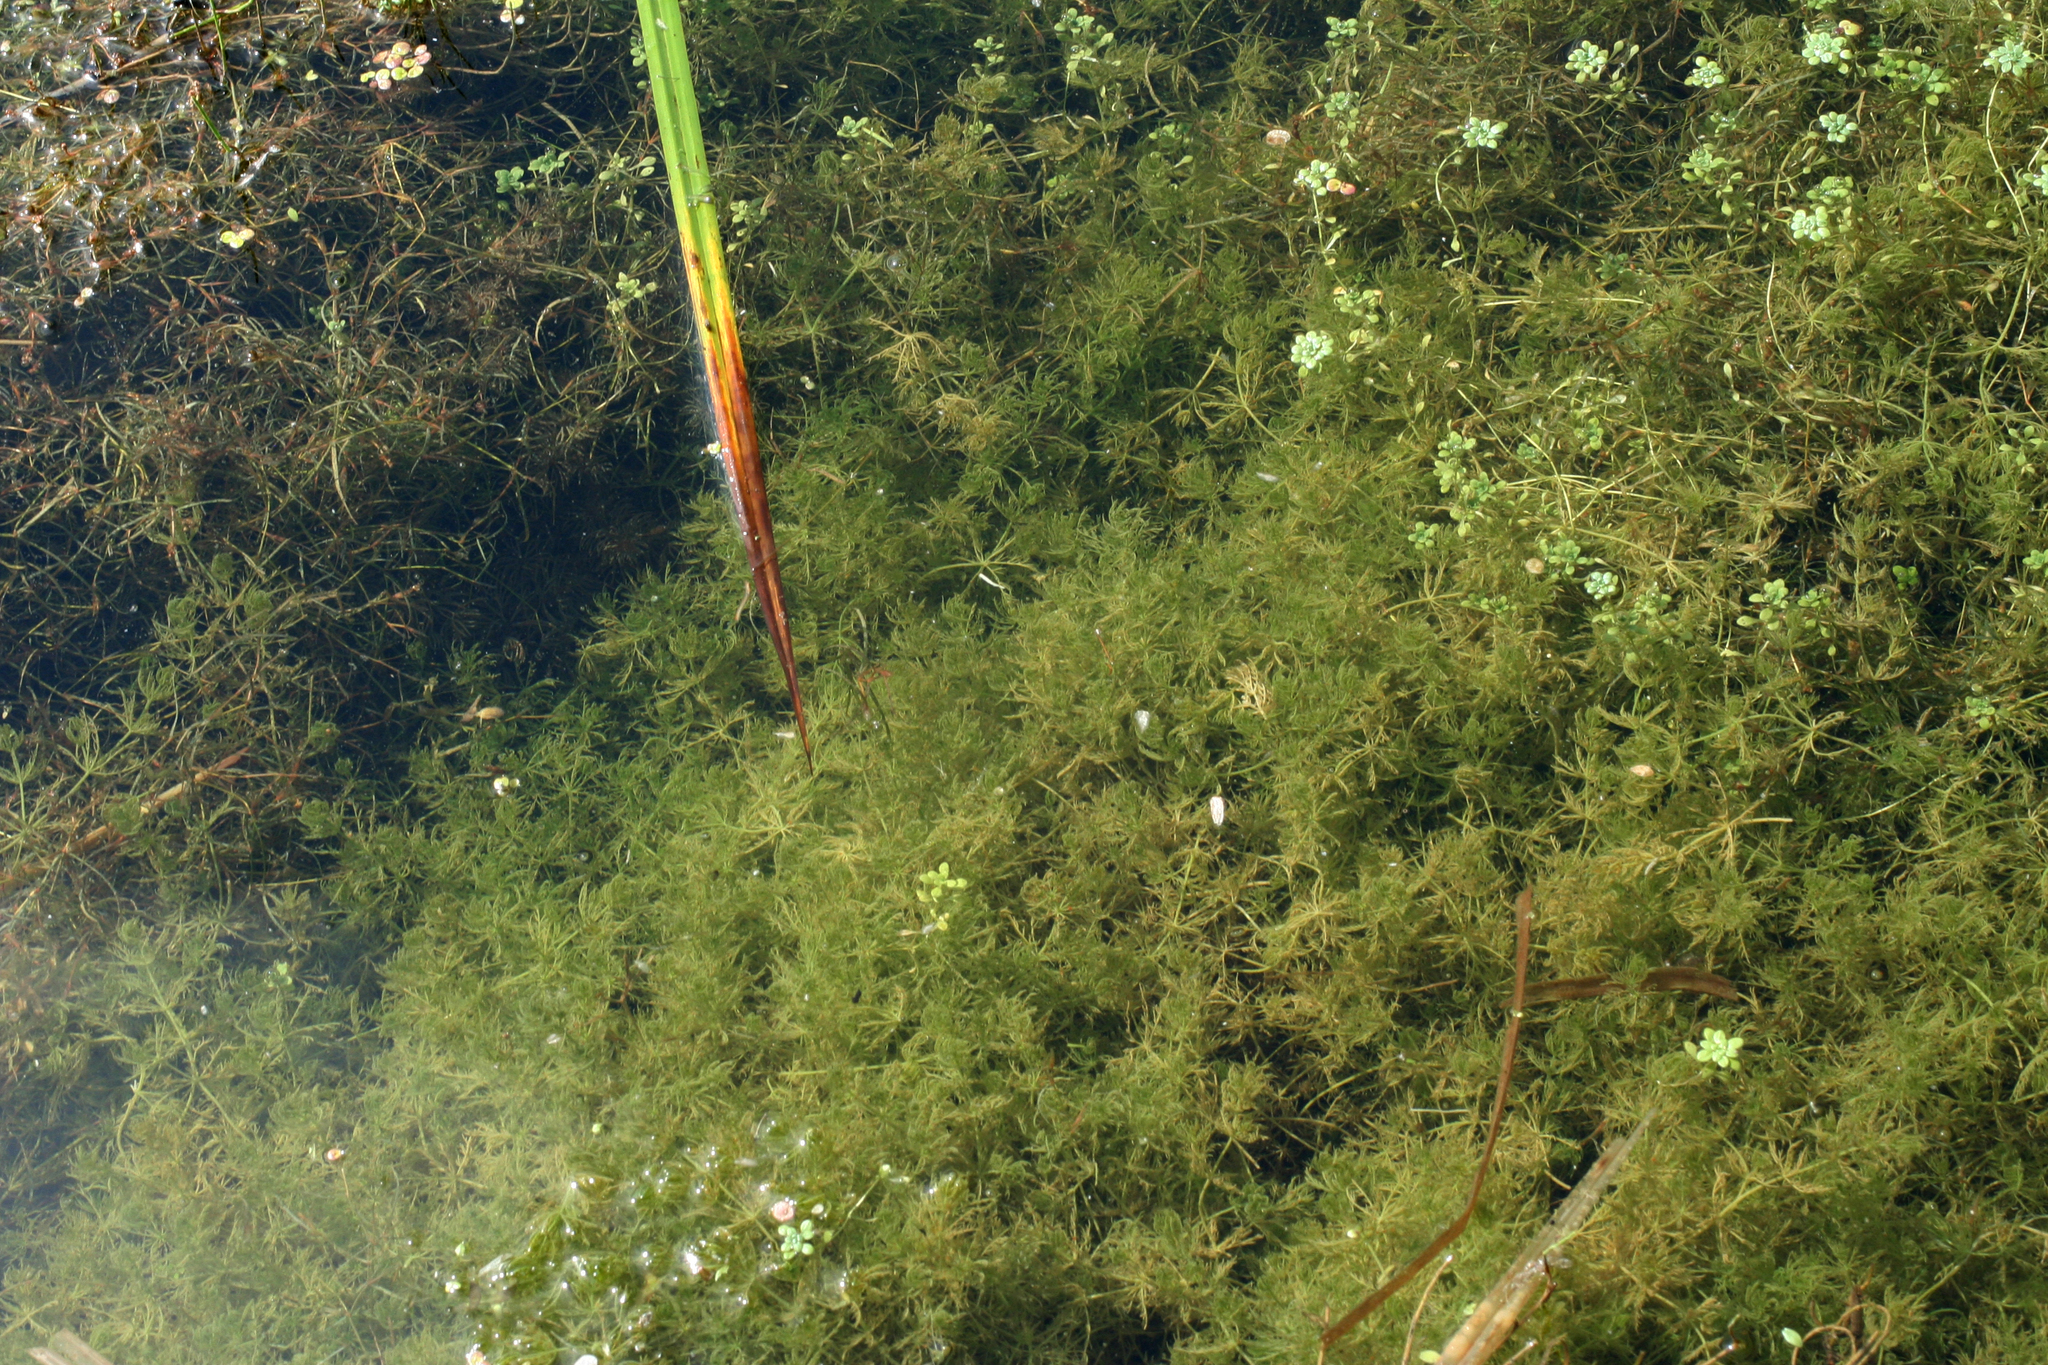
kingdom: Plantae
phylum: Charophyta
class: Charophyceae
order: Charales
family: Characeae
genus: Chara
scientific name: Chara vulgaris
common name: Common stonewort
